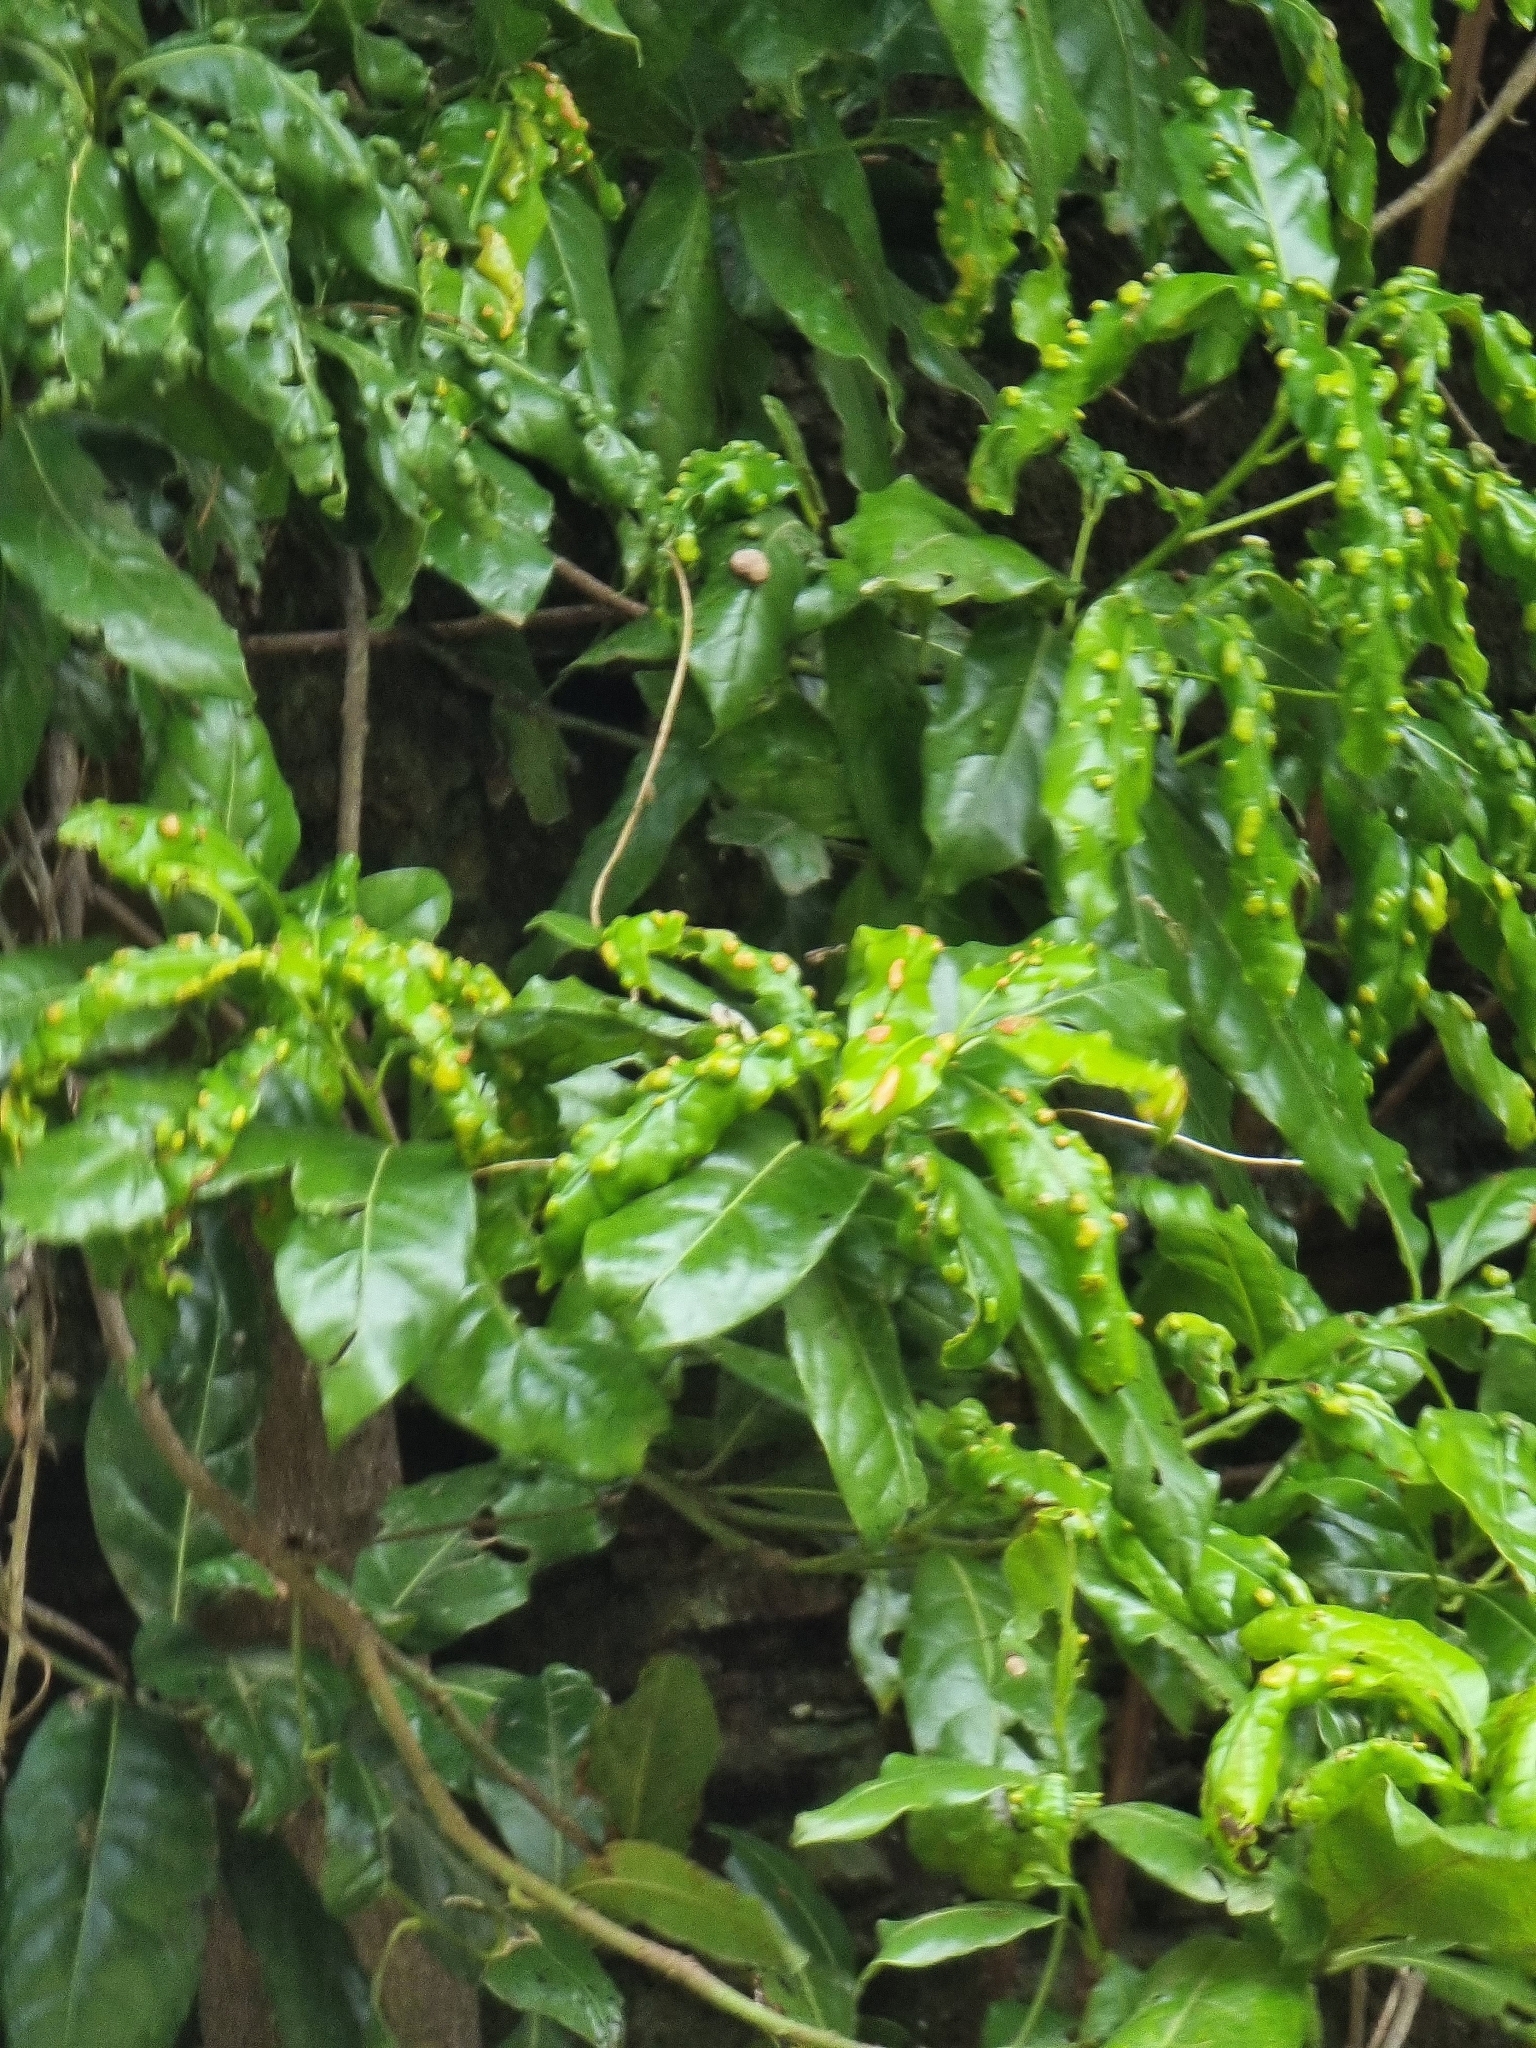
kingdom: Plantae
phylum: Tracheophyta
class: Magnoliopsida
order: Laurales
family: Lauraceae
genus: Apollonias
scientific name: Apollonias barbujana
